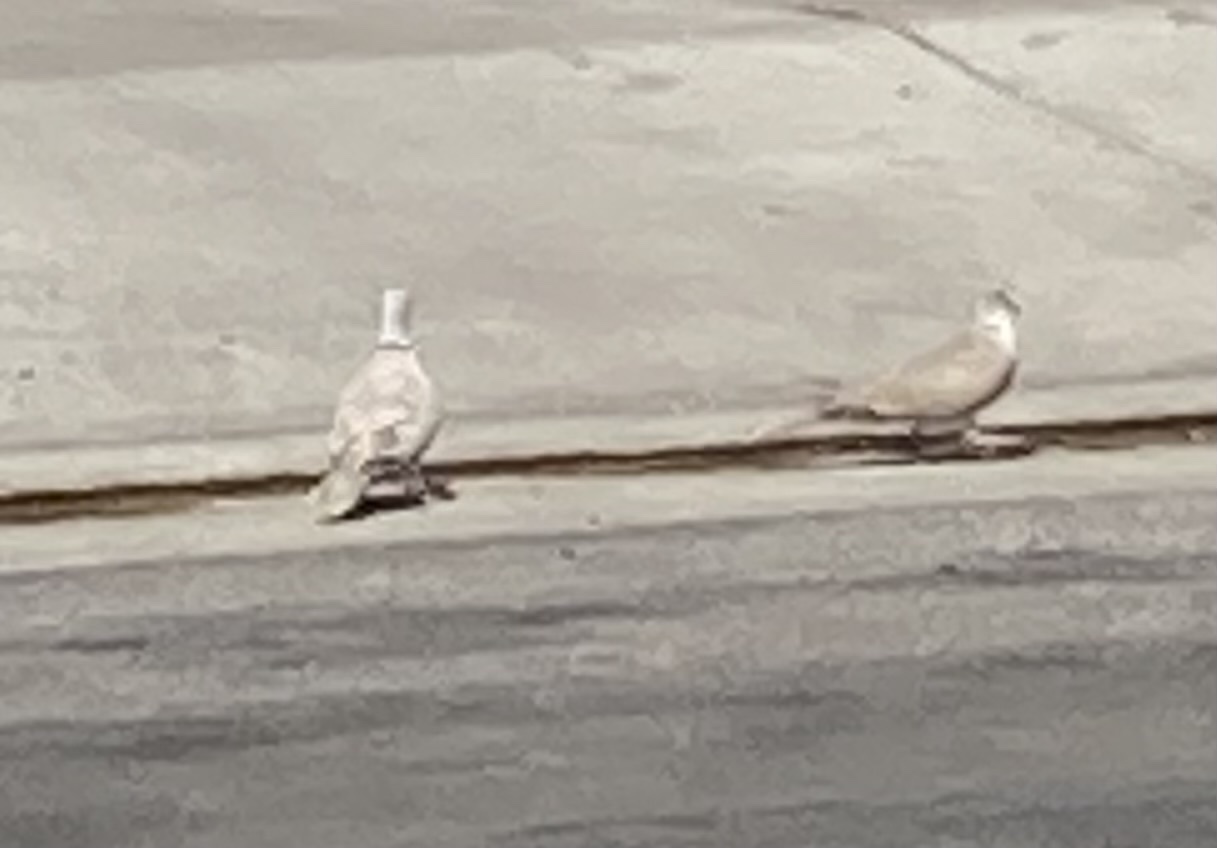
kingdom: Animalia
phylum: Chordata
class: Aves
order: Columbiformes
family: Columbidae
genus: Streptopelia
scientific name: Streptopelia decaocto
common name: Eurasian collared dove
